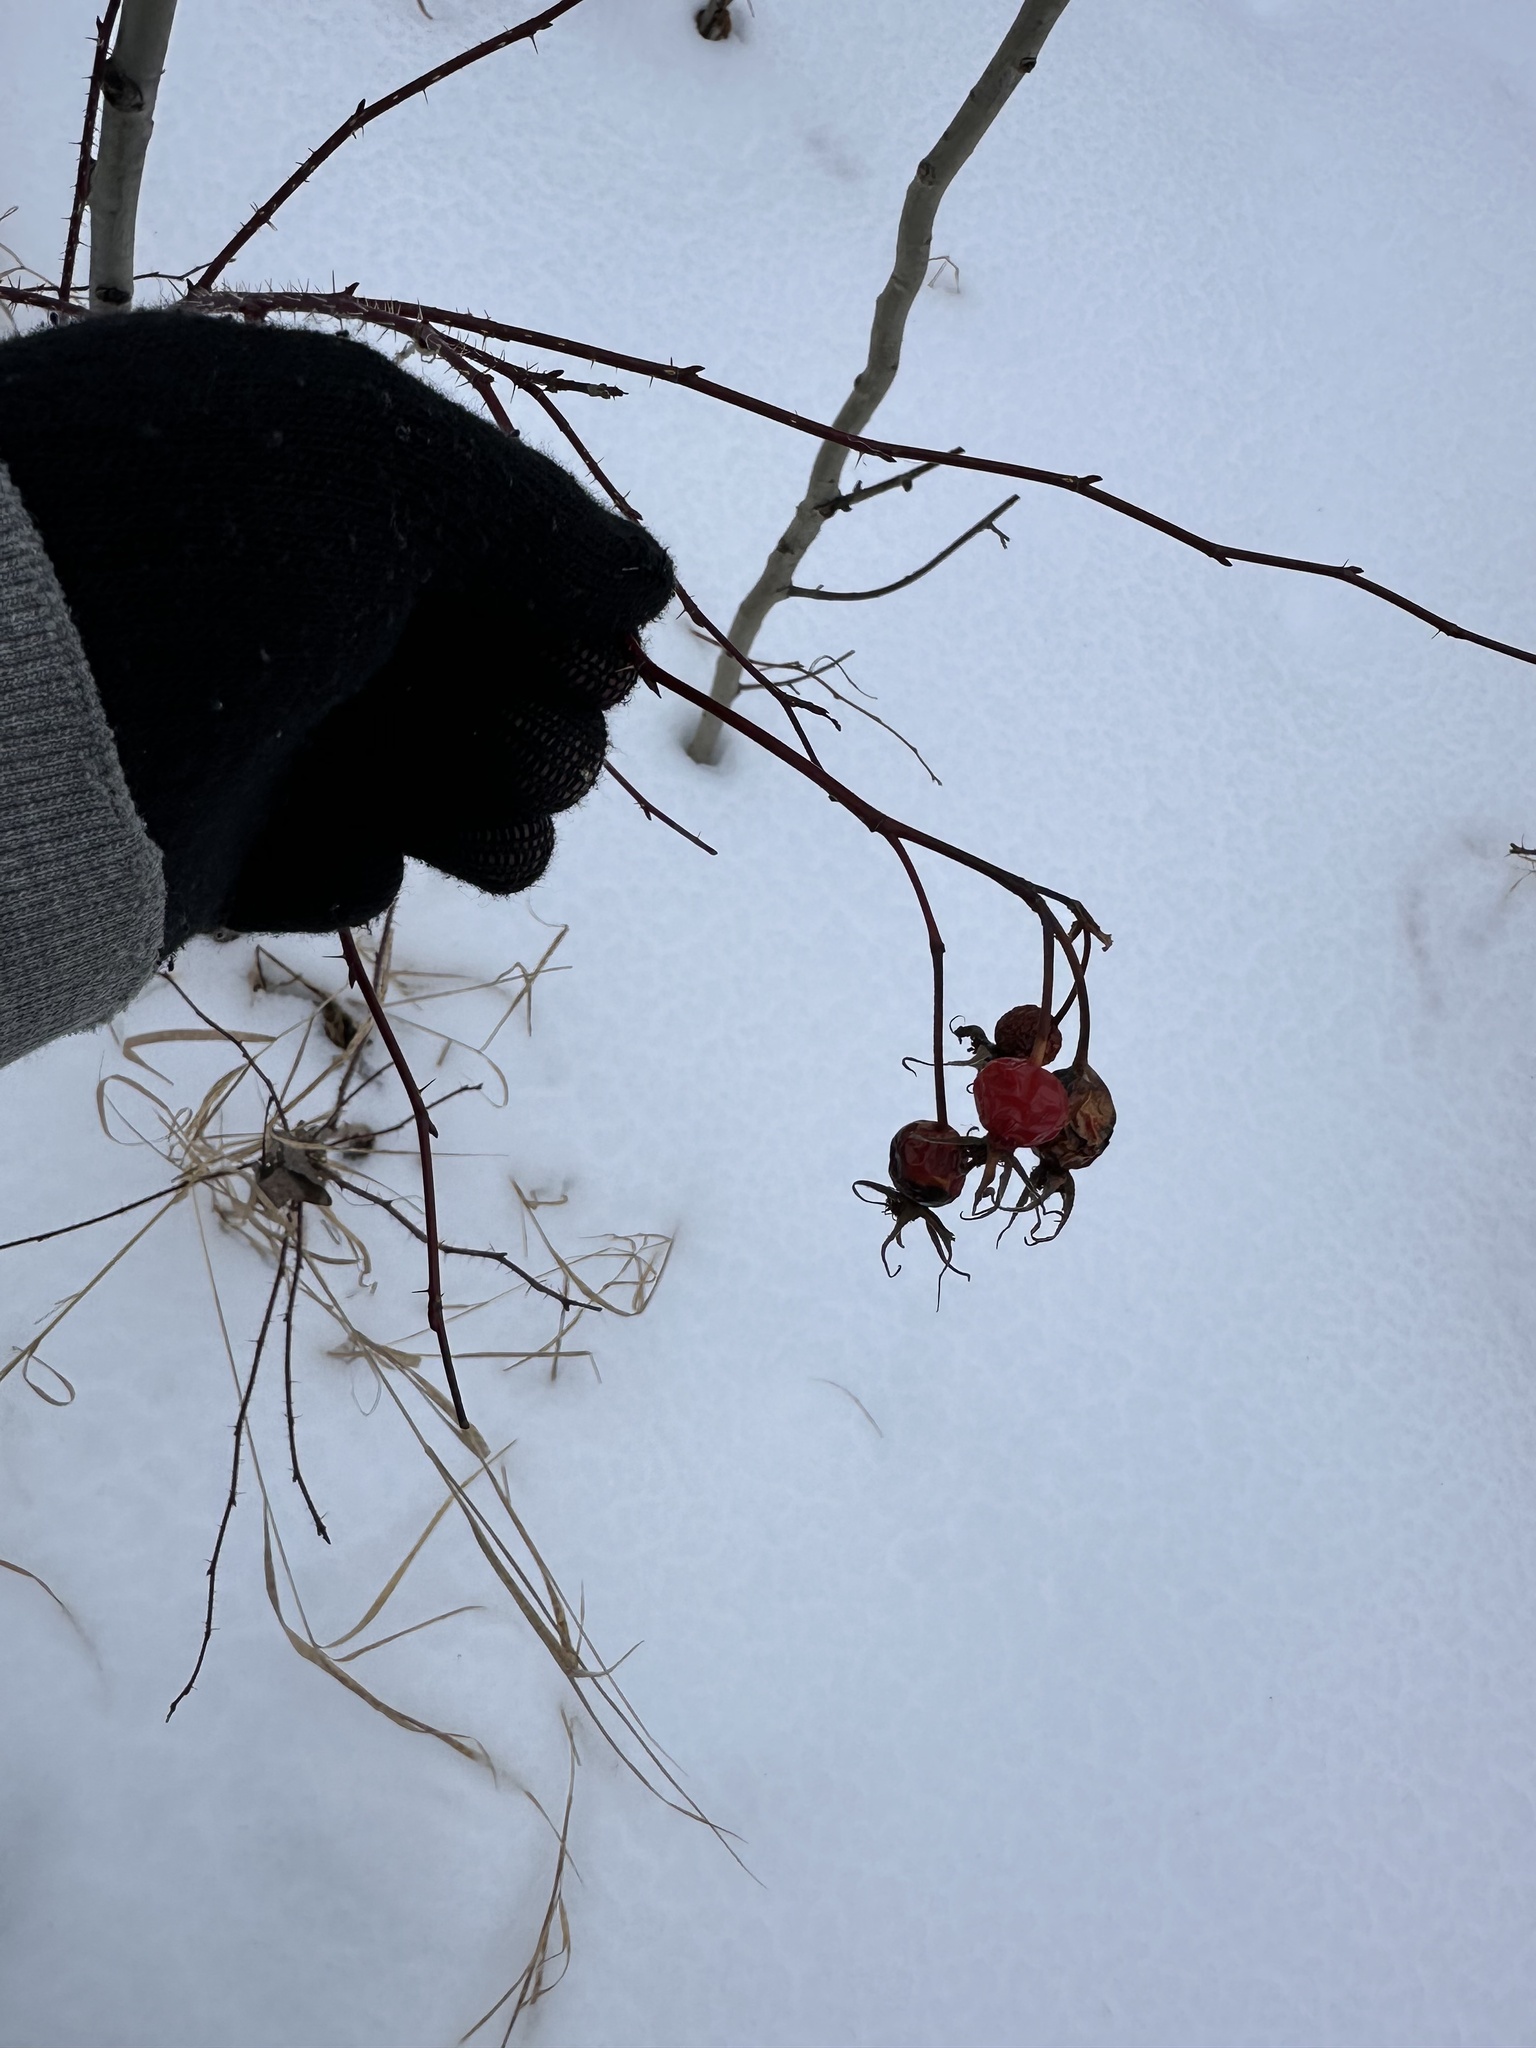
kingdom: Plantae
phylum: Tracheophyta
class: Magnoliopsida
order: Rosales
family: Rosaceae
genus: Rosa
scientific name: Rosa woodsii
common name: Woods's rose
